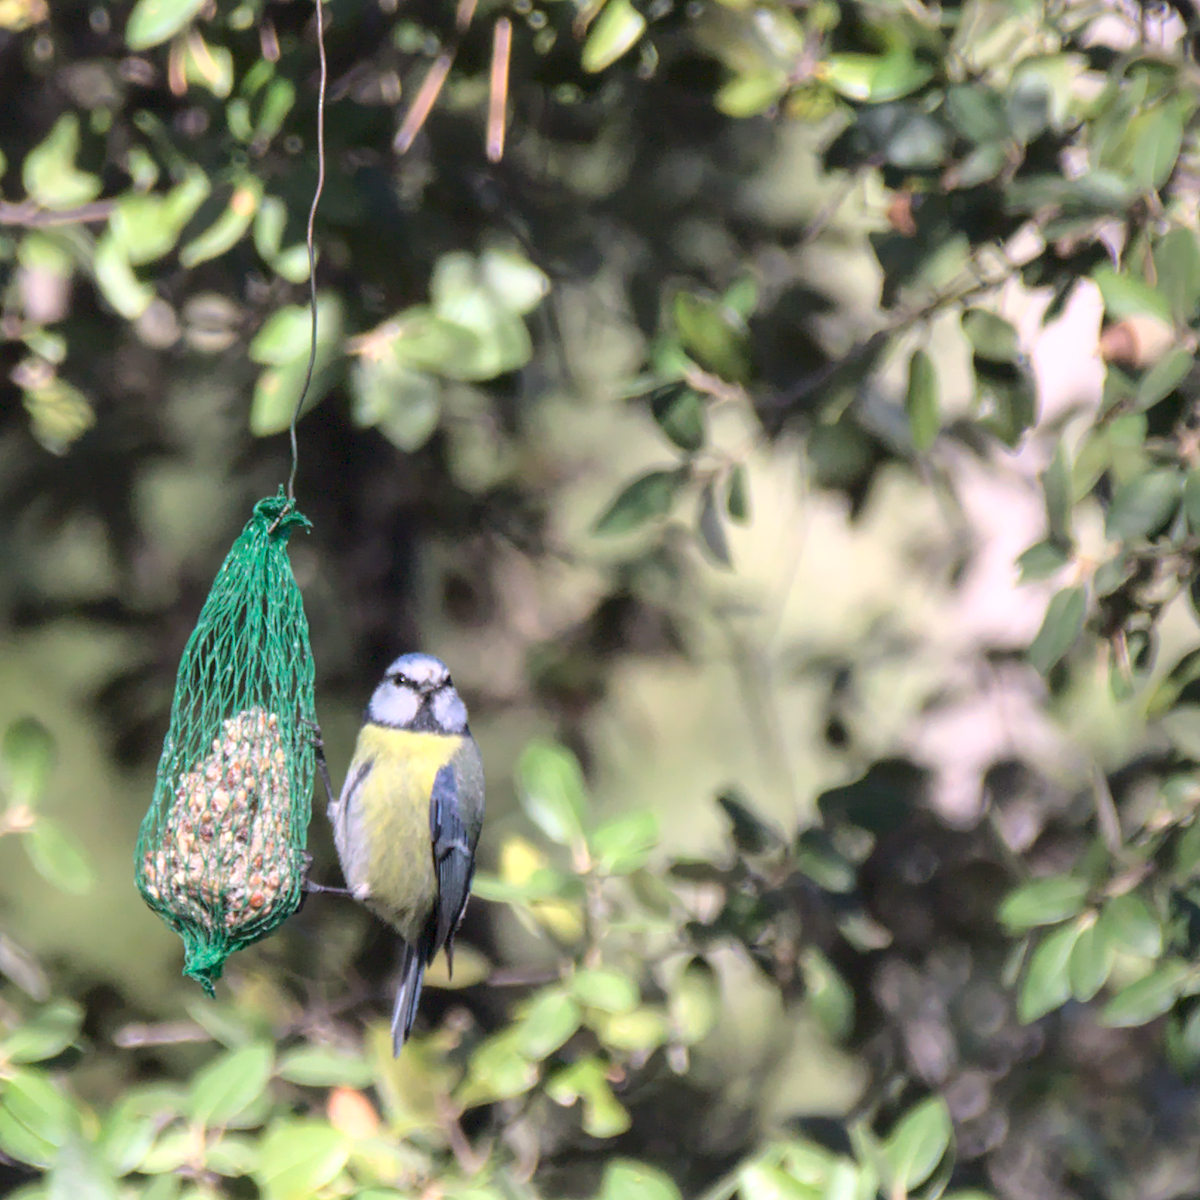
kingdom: Animalia
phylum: Chordata
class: Aves
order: Passeriformes
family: Paridae
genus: Cyanistes
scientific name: Cyanistes caeruleus
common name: Eurasian blue tit
